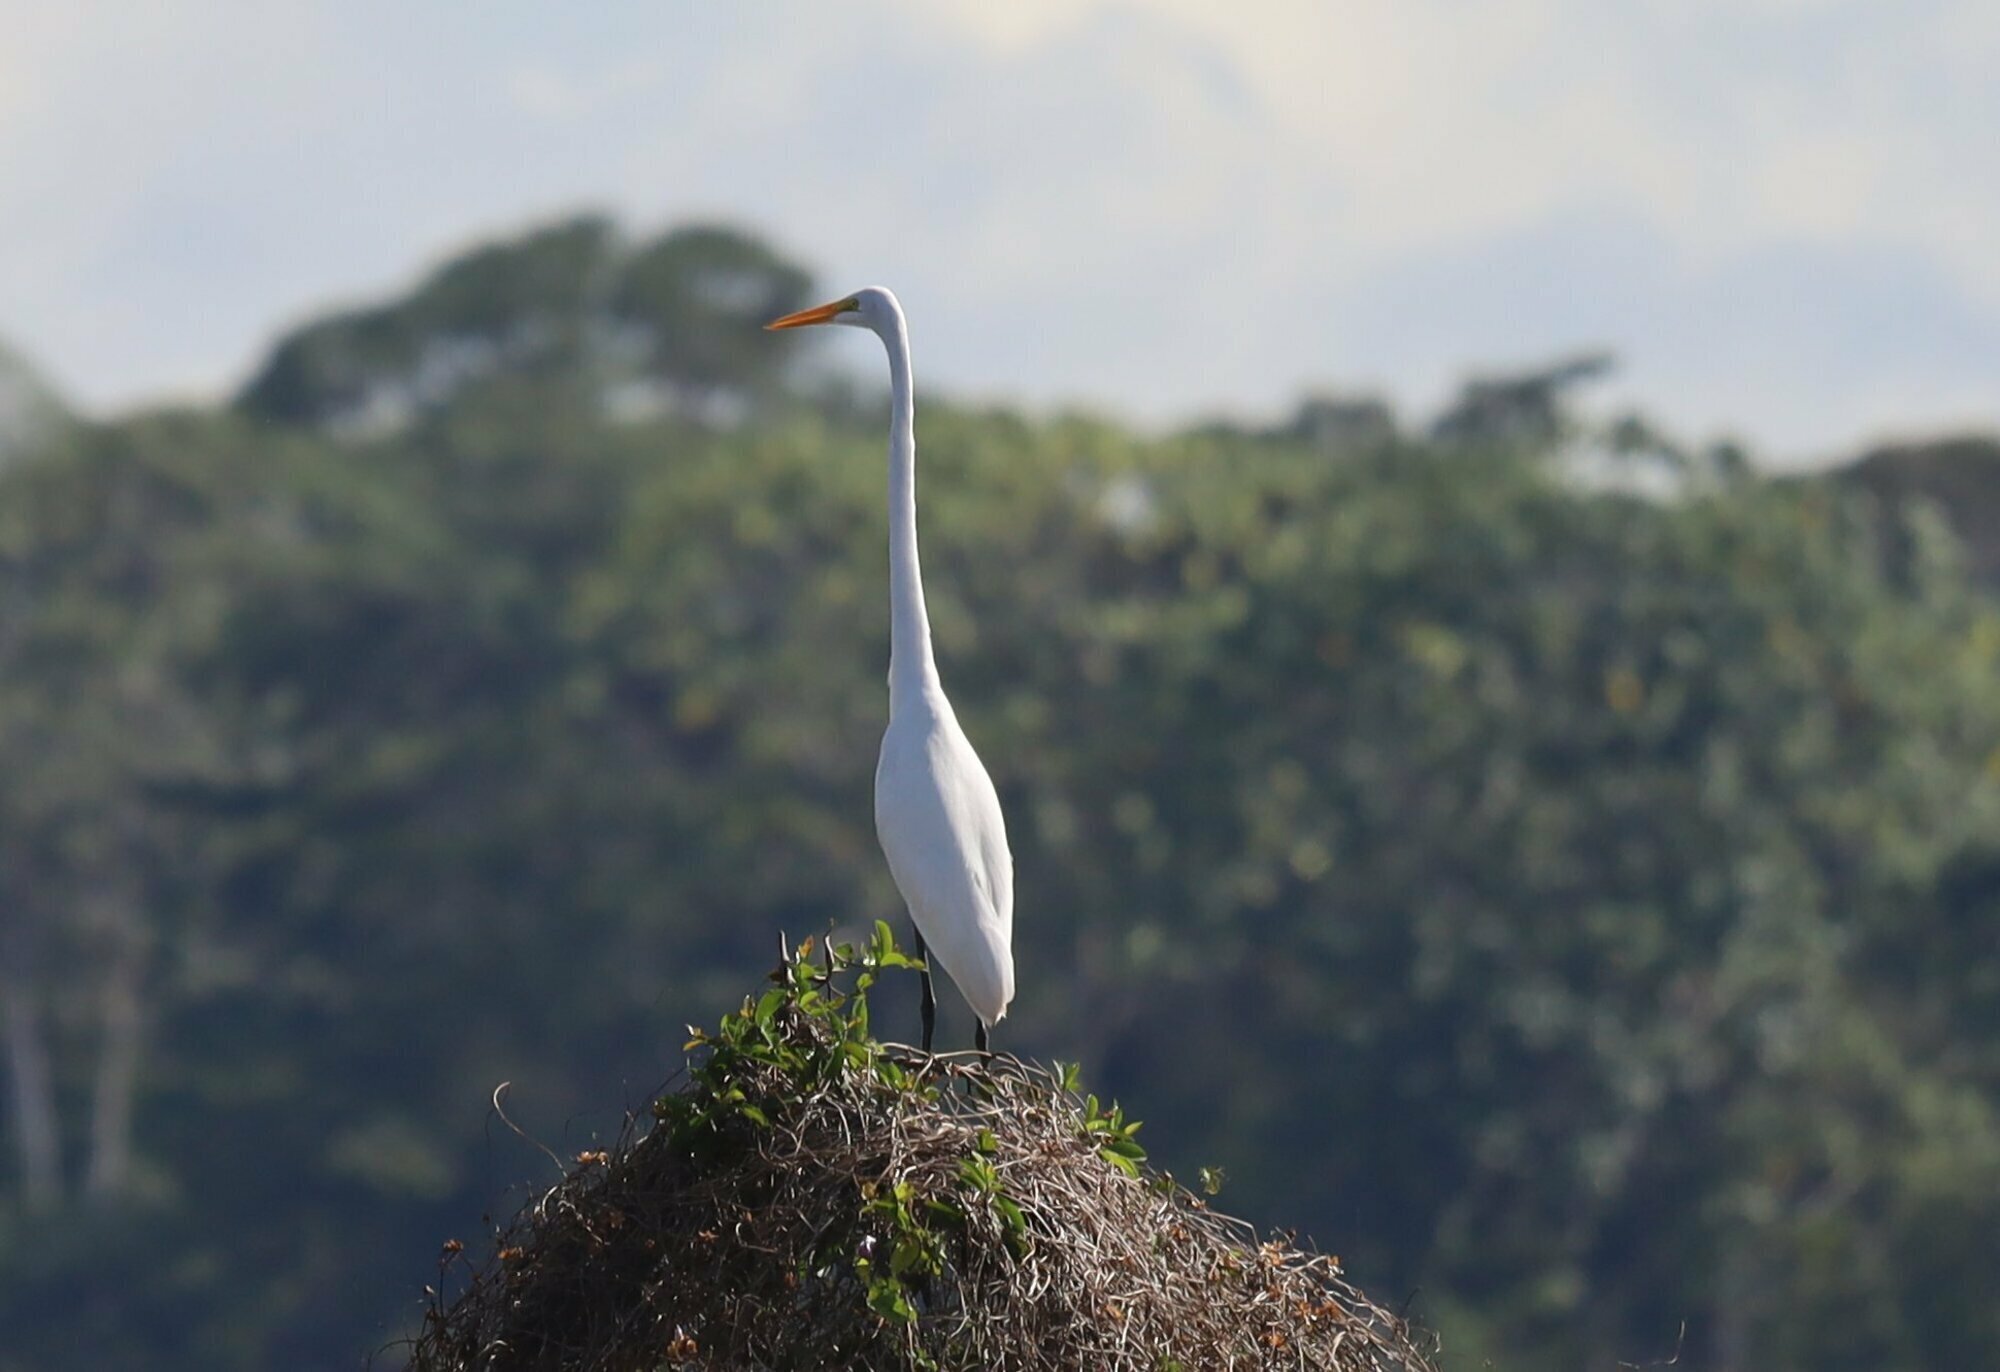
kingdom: Animalia
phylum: Chordata
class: Aves
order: Pelecaniformes
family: Ardeidae
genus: Ardea
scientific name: Ardea alba
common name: Great egret
